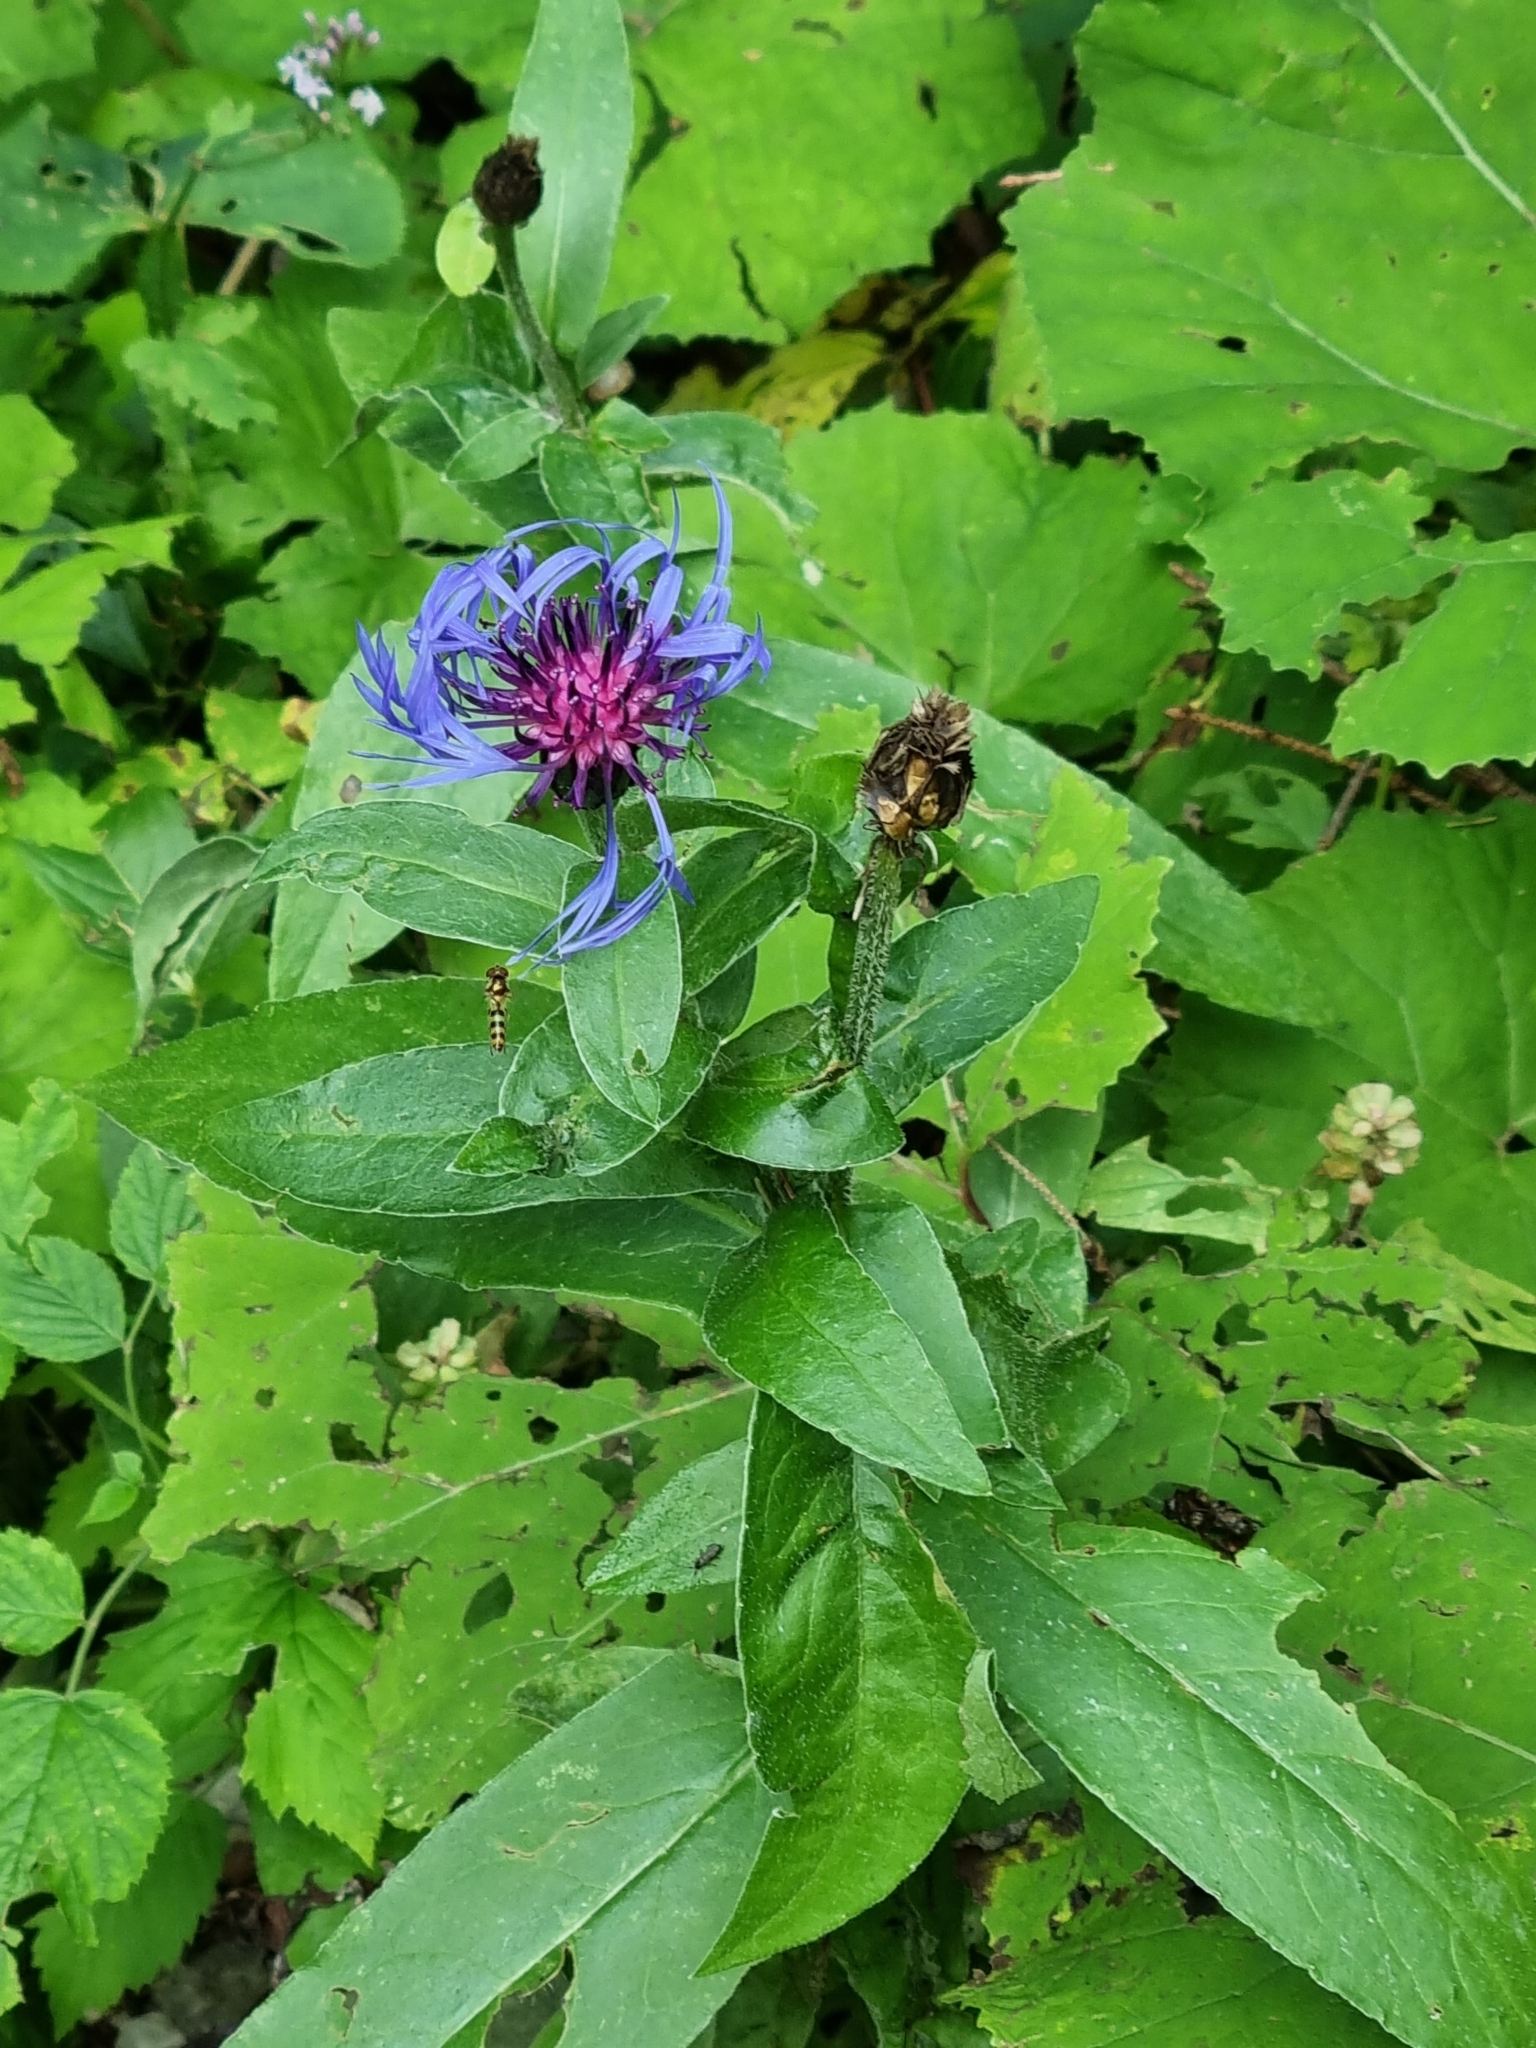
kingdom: Plantae
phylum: Tracheophyta
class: Magnoliopsida
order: Asterales
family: Asteraceae
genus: Centaurea
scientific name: Centaurea montana
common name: Perennial cornflower
